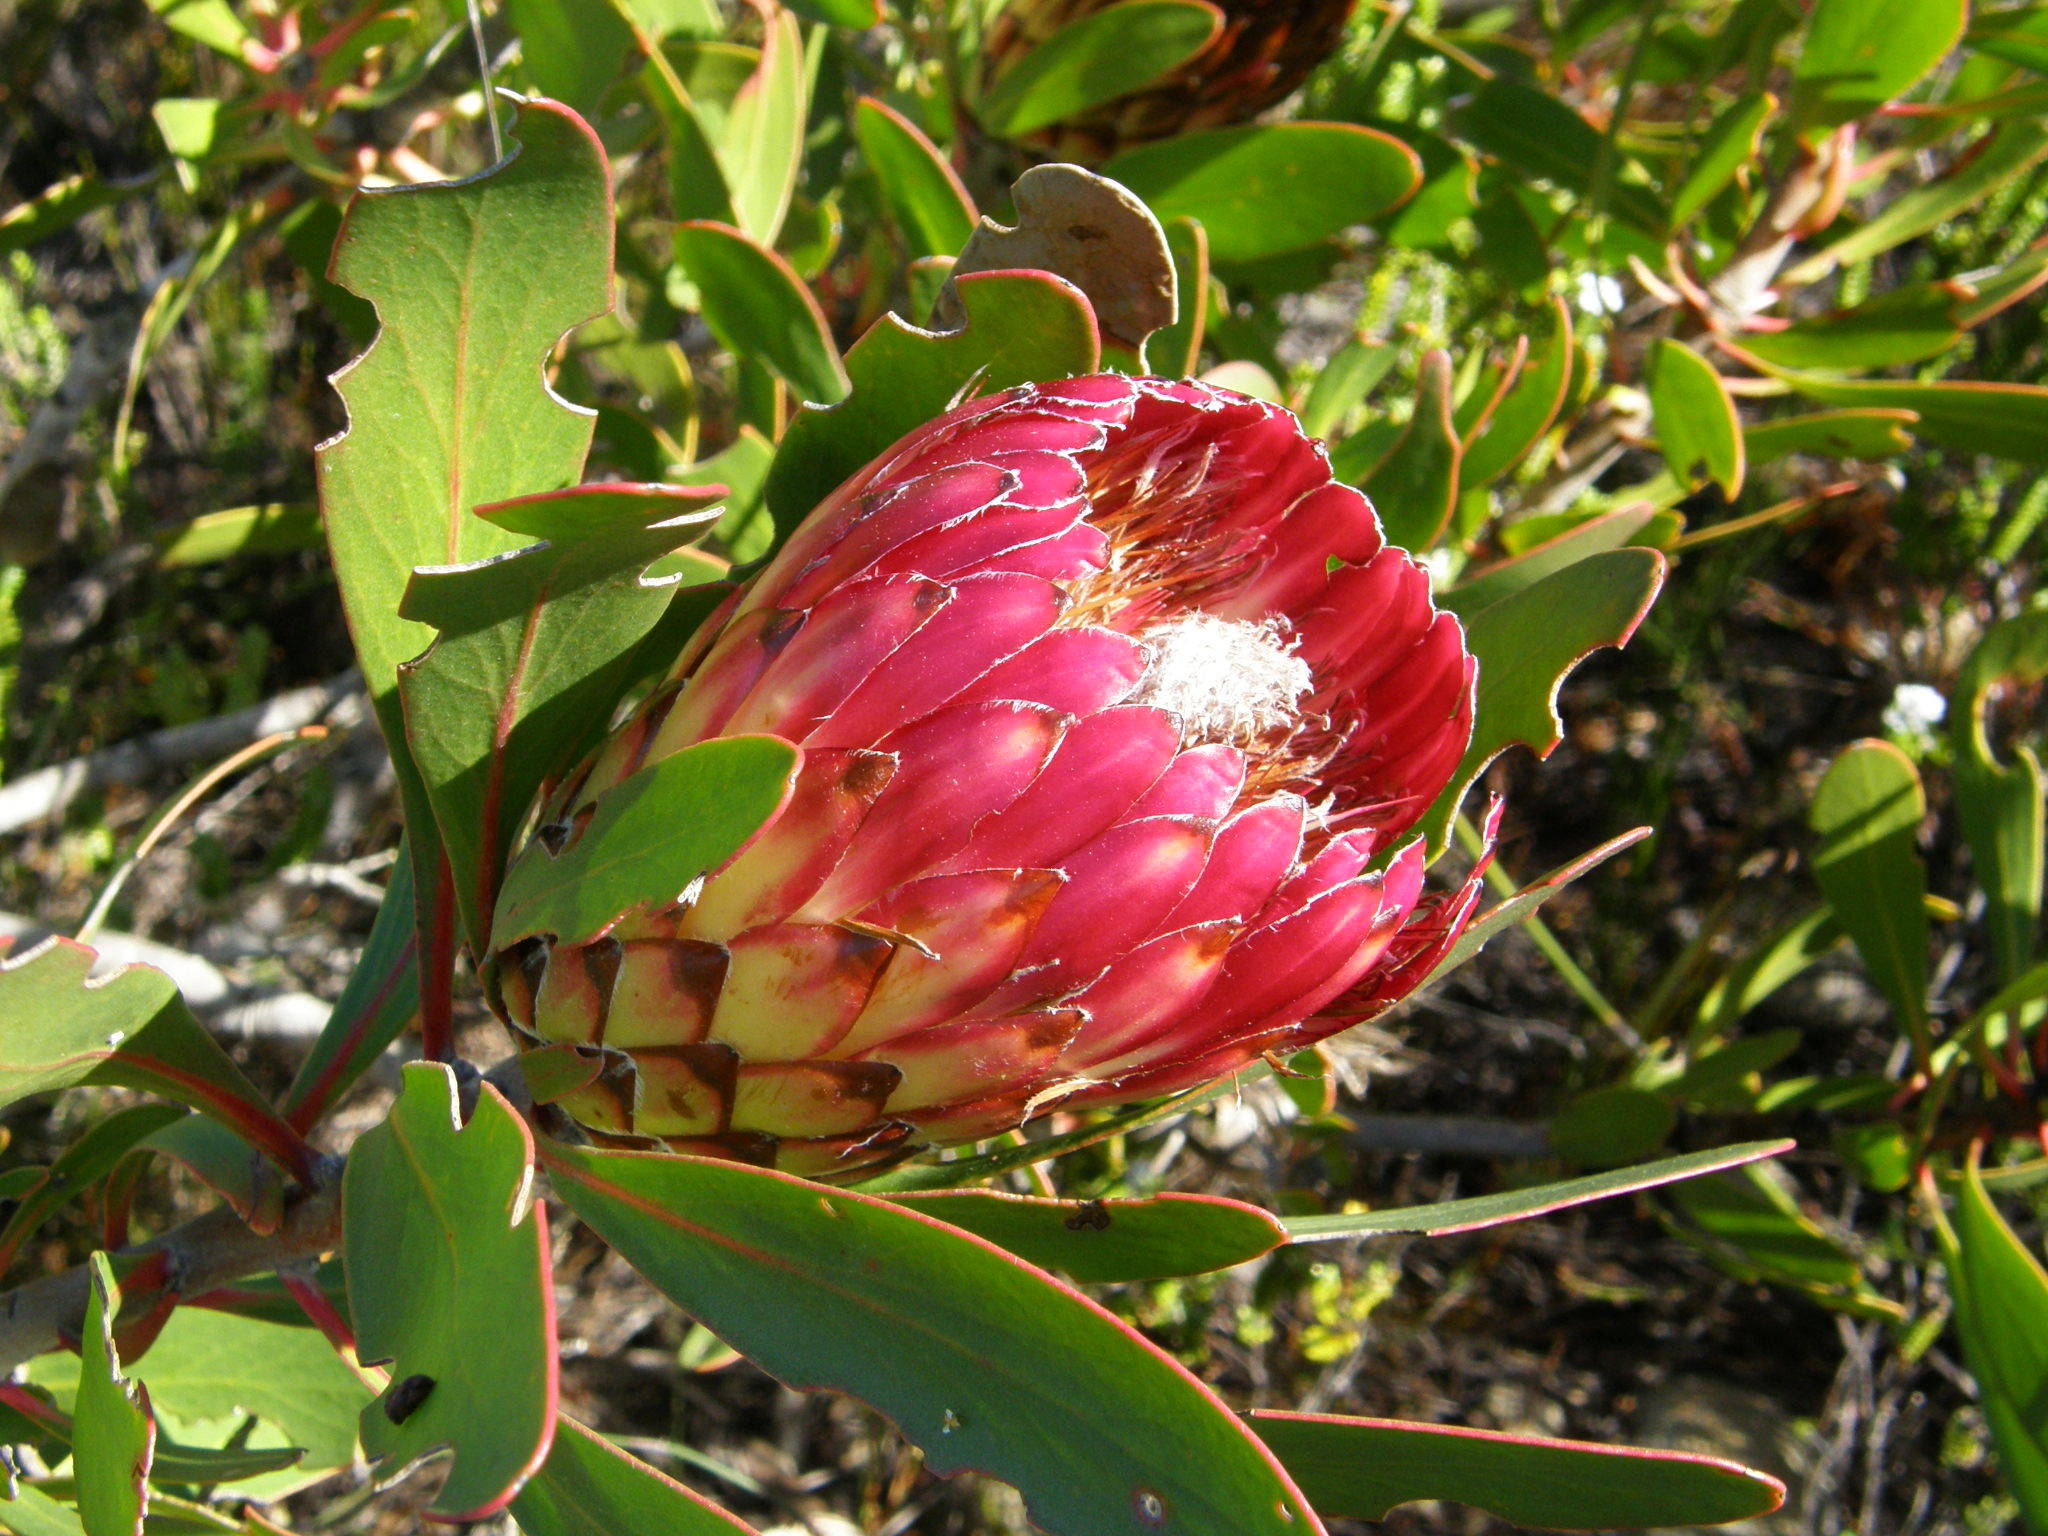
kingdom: Plantae
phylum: Tracheophyta
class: Magnoliopsida
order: Proteales
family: Proteaceae
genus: Protea
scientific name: Protea obtusifolia
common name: Bredasdorp sugarbush
